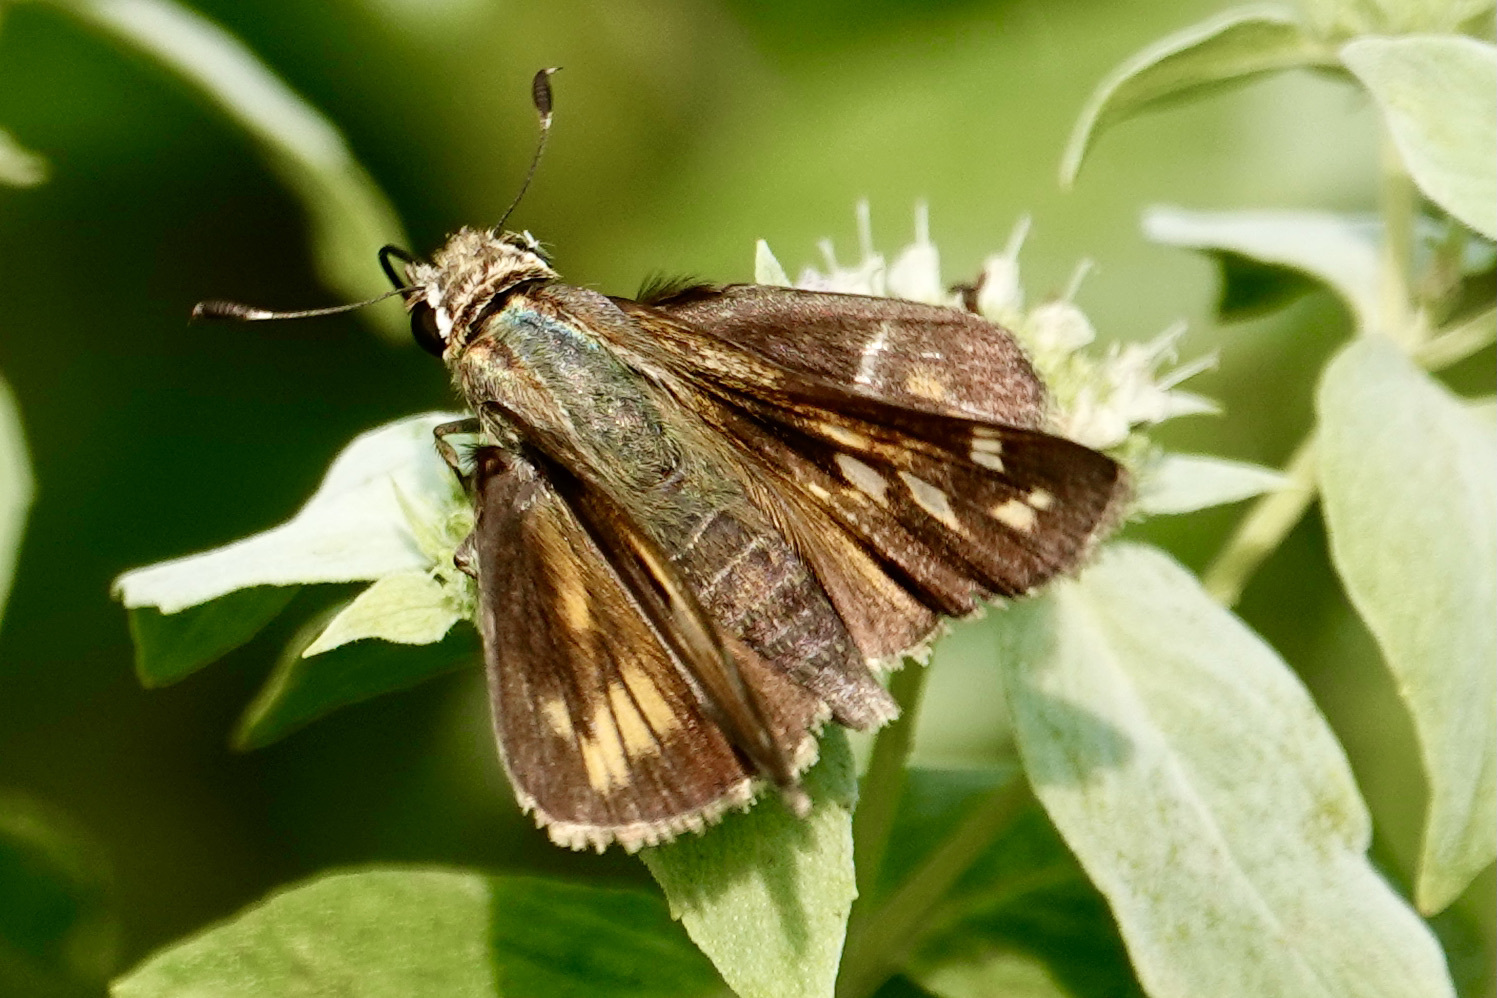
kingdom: Animalia
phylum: Arthropoda
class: Insecta
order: Lepidoptera
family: Hesperiidae
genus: Atalopedes
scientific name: Atalopedes
